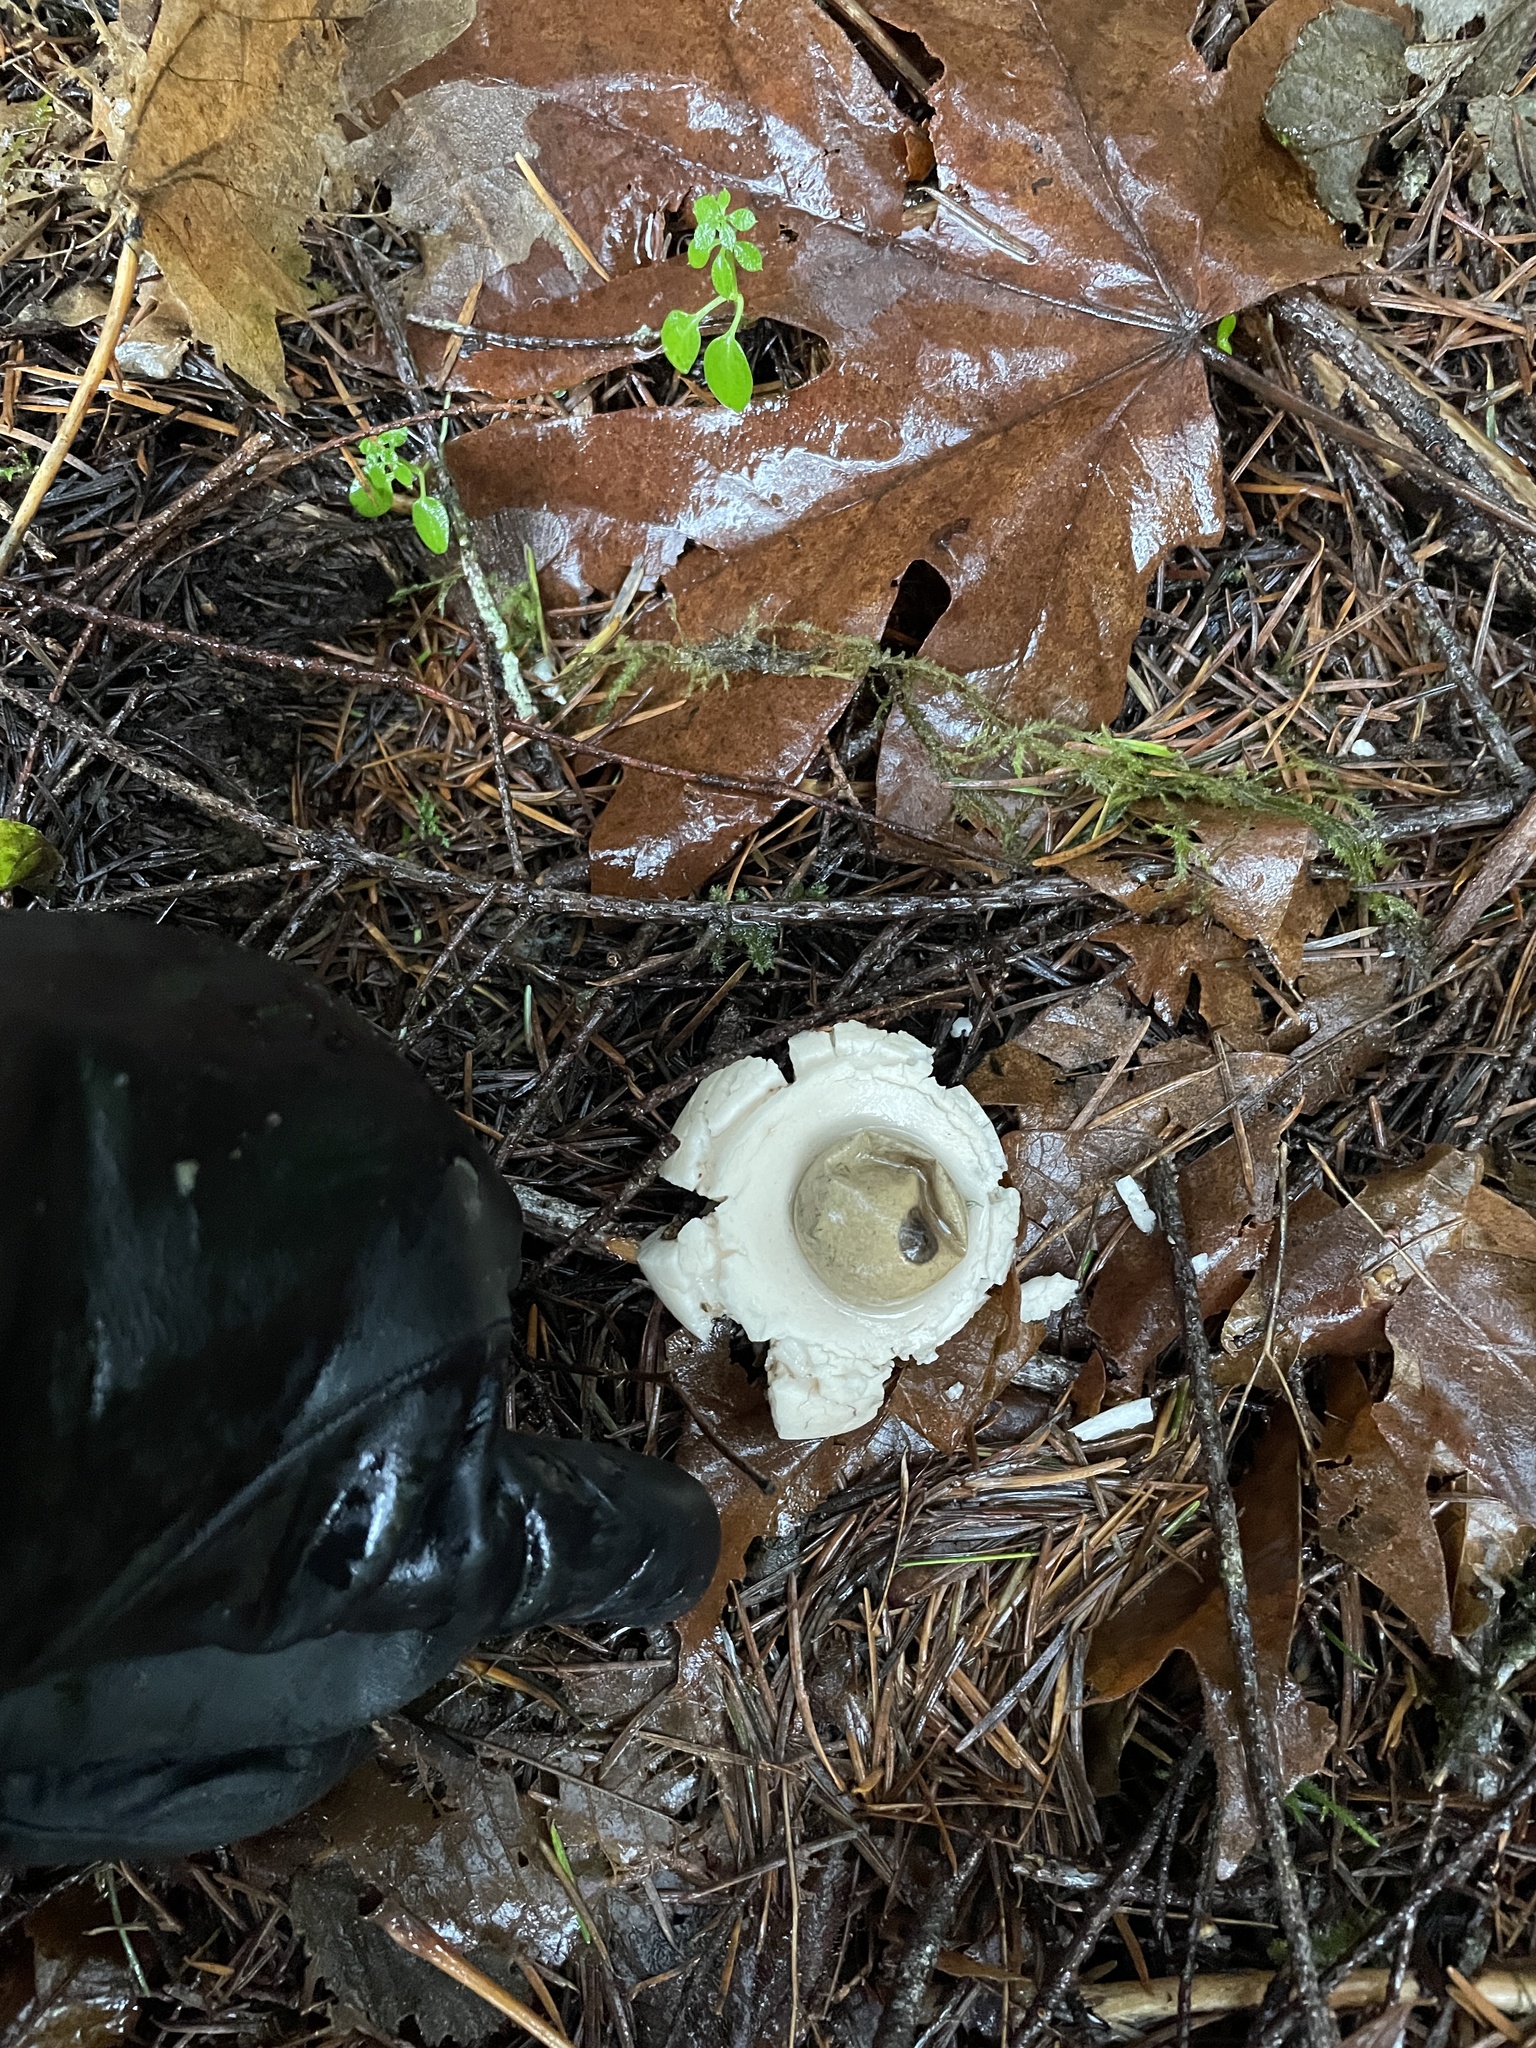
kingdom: Fungi
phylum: Basidiomycota
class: Agaricomycetes
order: Geastrales
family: Geastraceae
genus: Geastrum
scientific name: Geastrum saccatum
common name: Rounded earthstar
